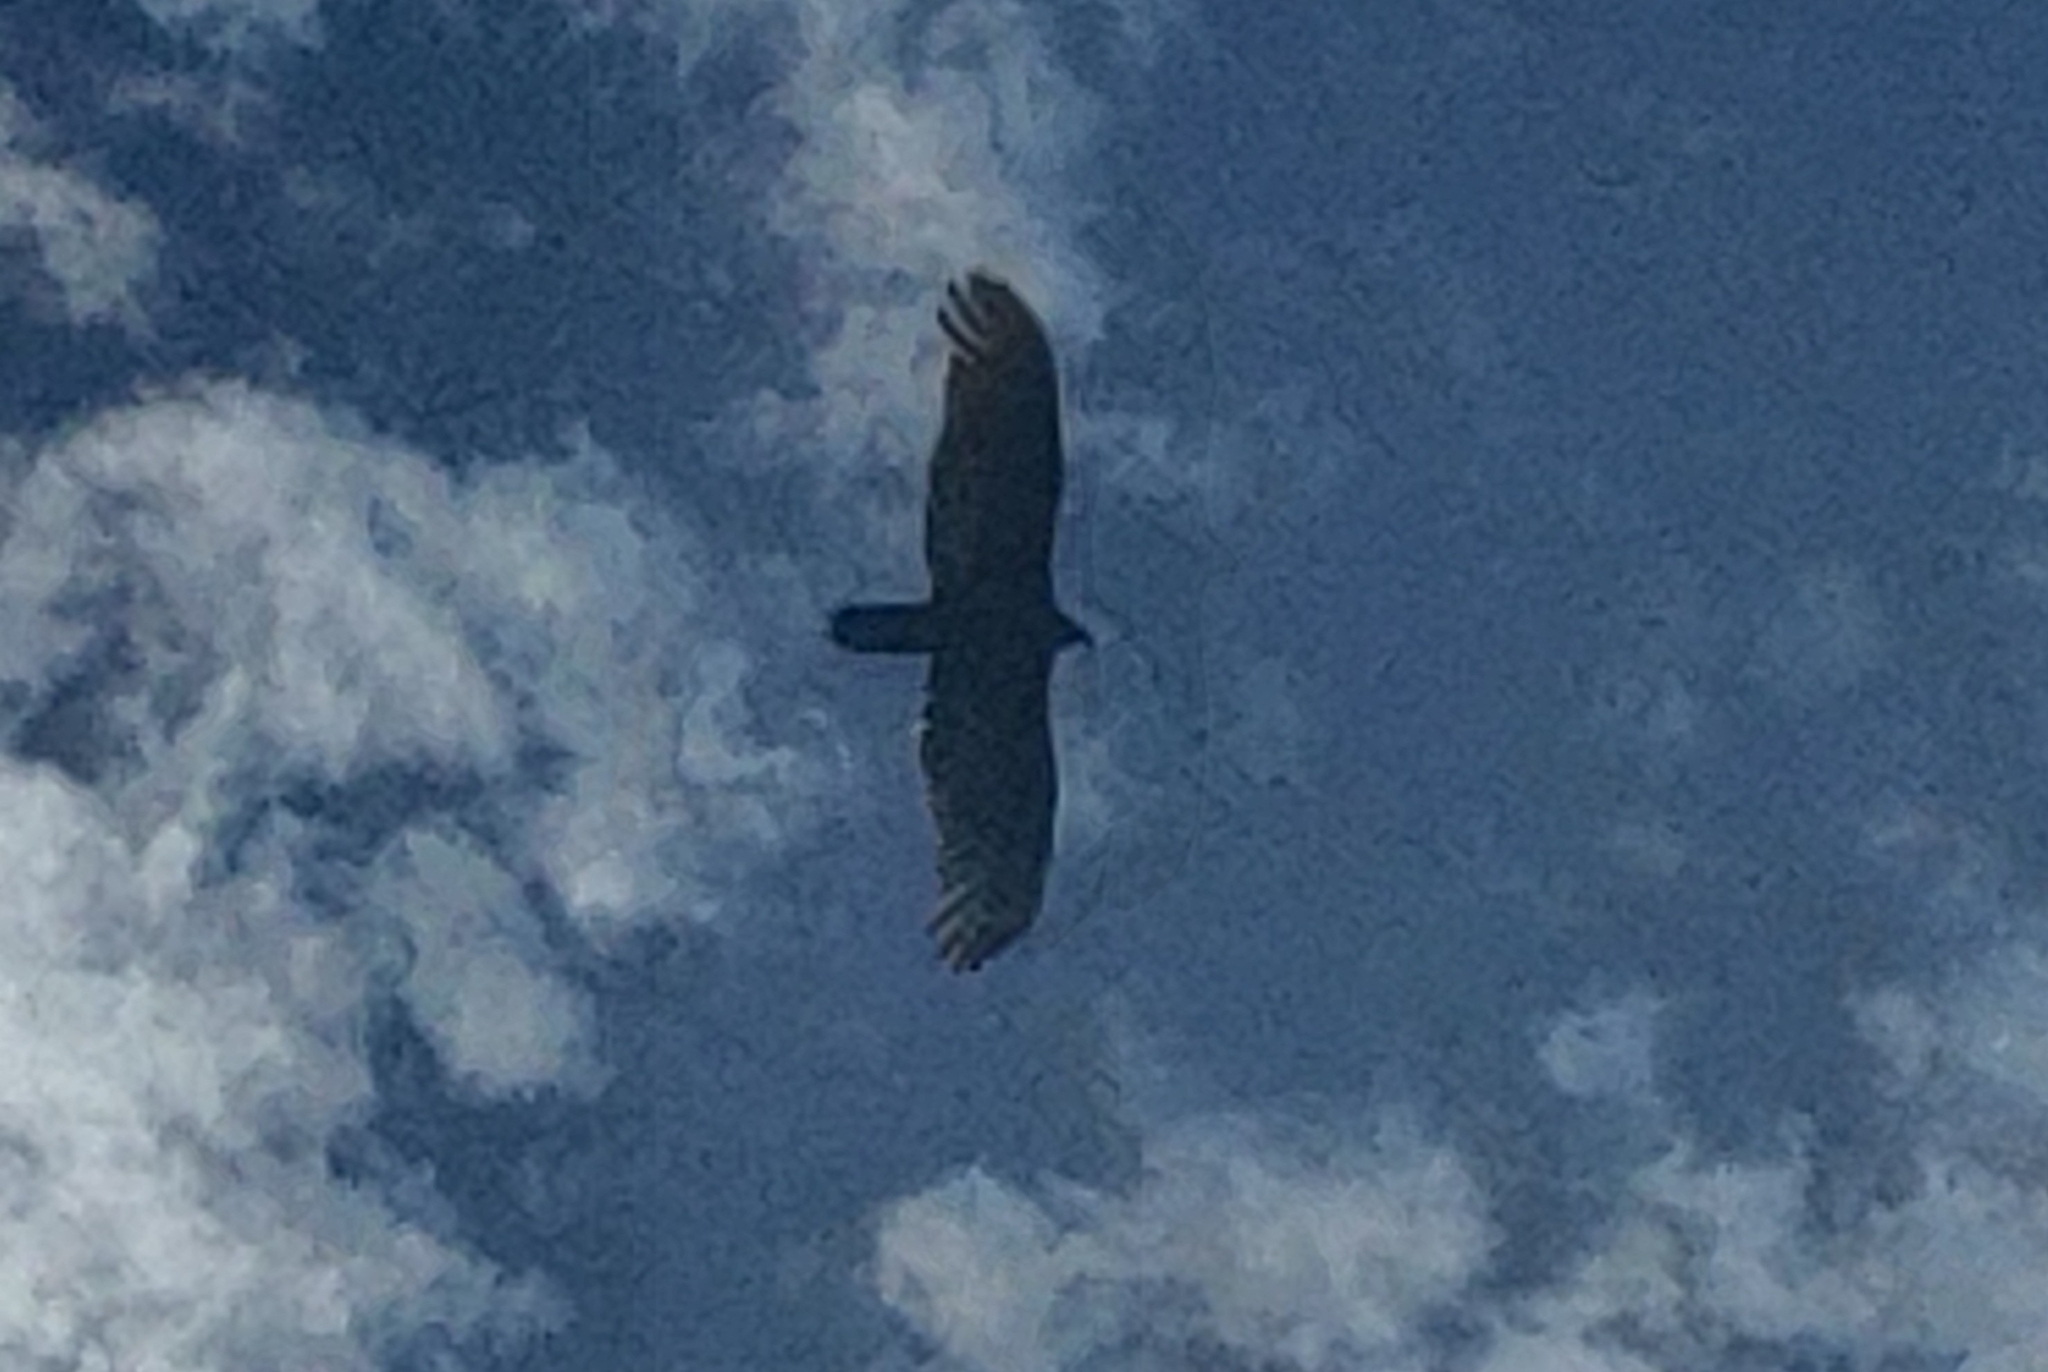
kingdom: Animalia
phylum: Chordata
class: Aves
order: Accipitriformes
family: Cathartidae
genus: Cathartes
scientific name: Cathartes aura
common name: Turkey vulture
